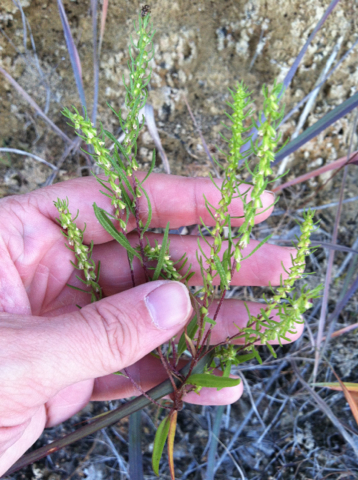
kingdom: Plantae
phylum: Tracheophyta
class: Magnoliopsida
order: Asterales
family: Asteraceae
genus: Iva
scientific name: Iva asperifolia
